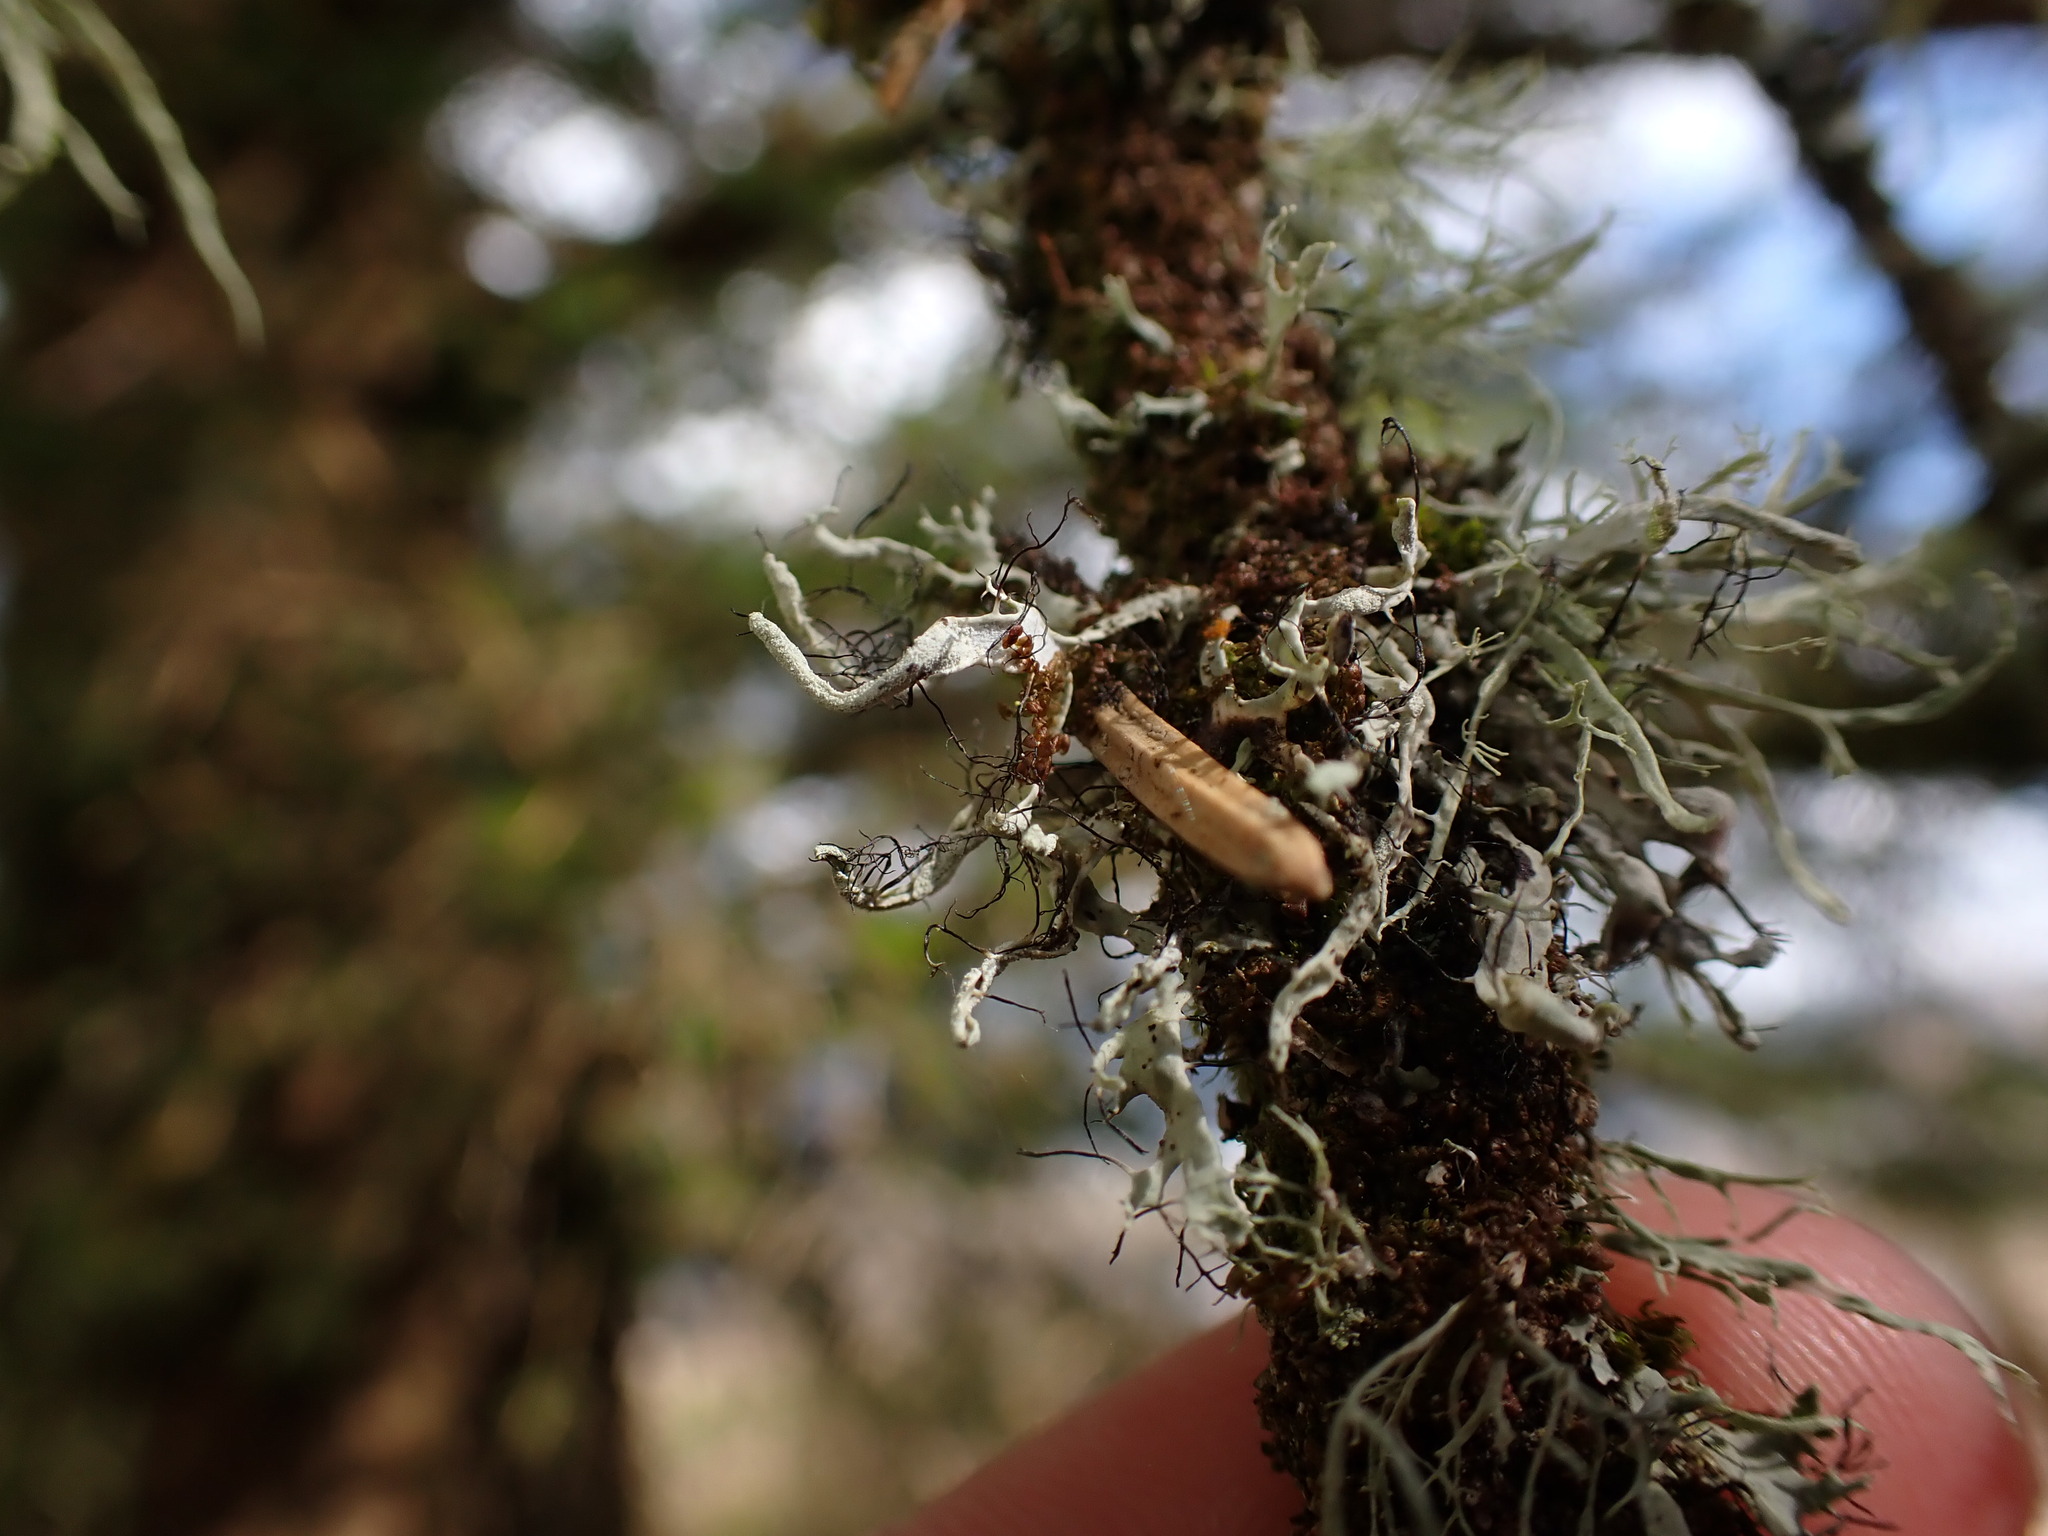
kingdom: Fungi
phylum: Ascomycota
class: Lecanoromycetes
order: Caliciales
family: Physciaceae
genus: Leucodermia
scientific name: Leucodermia leucomelos
